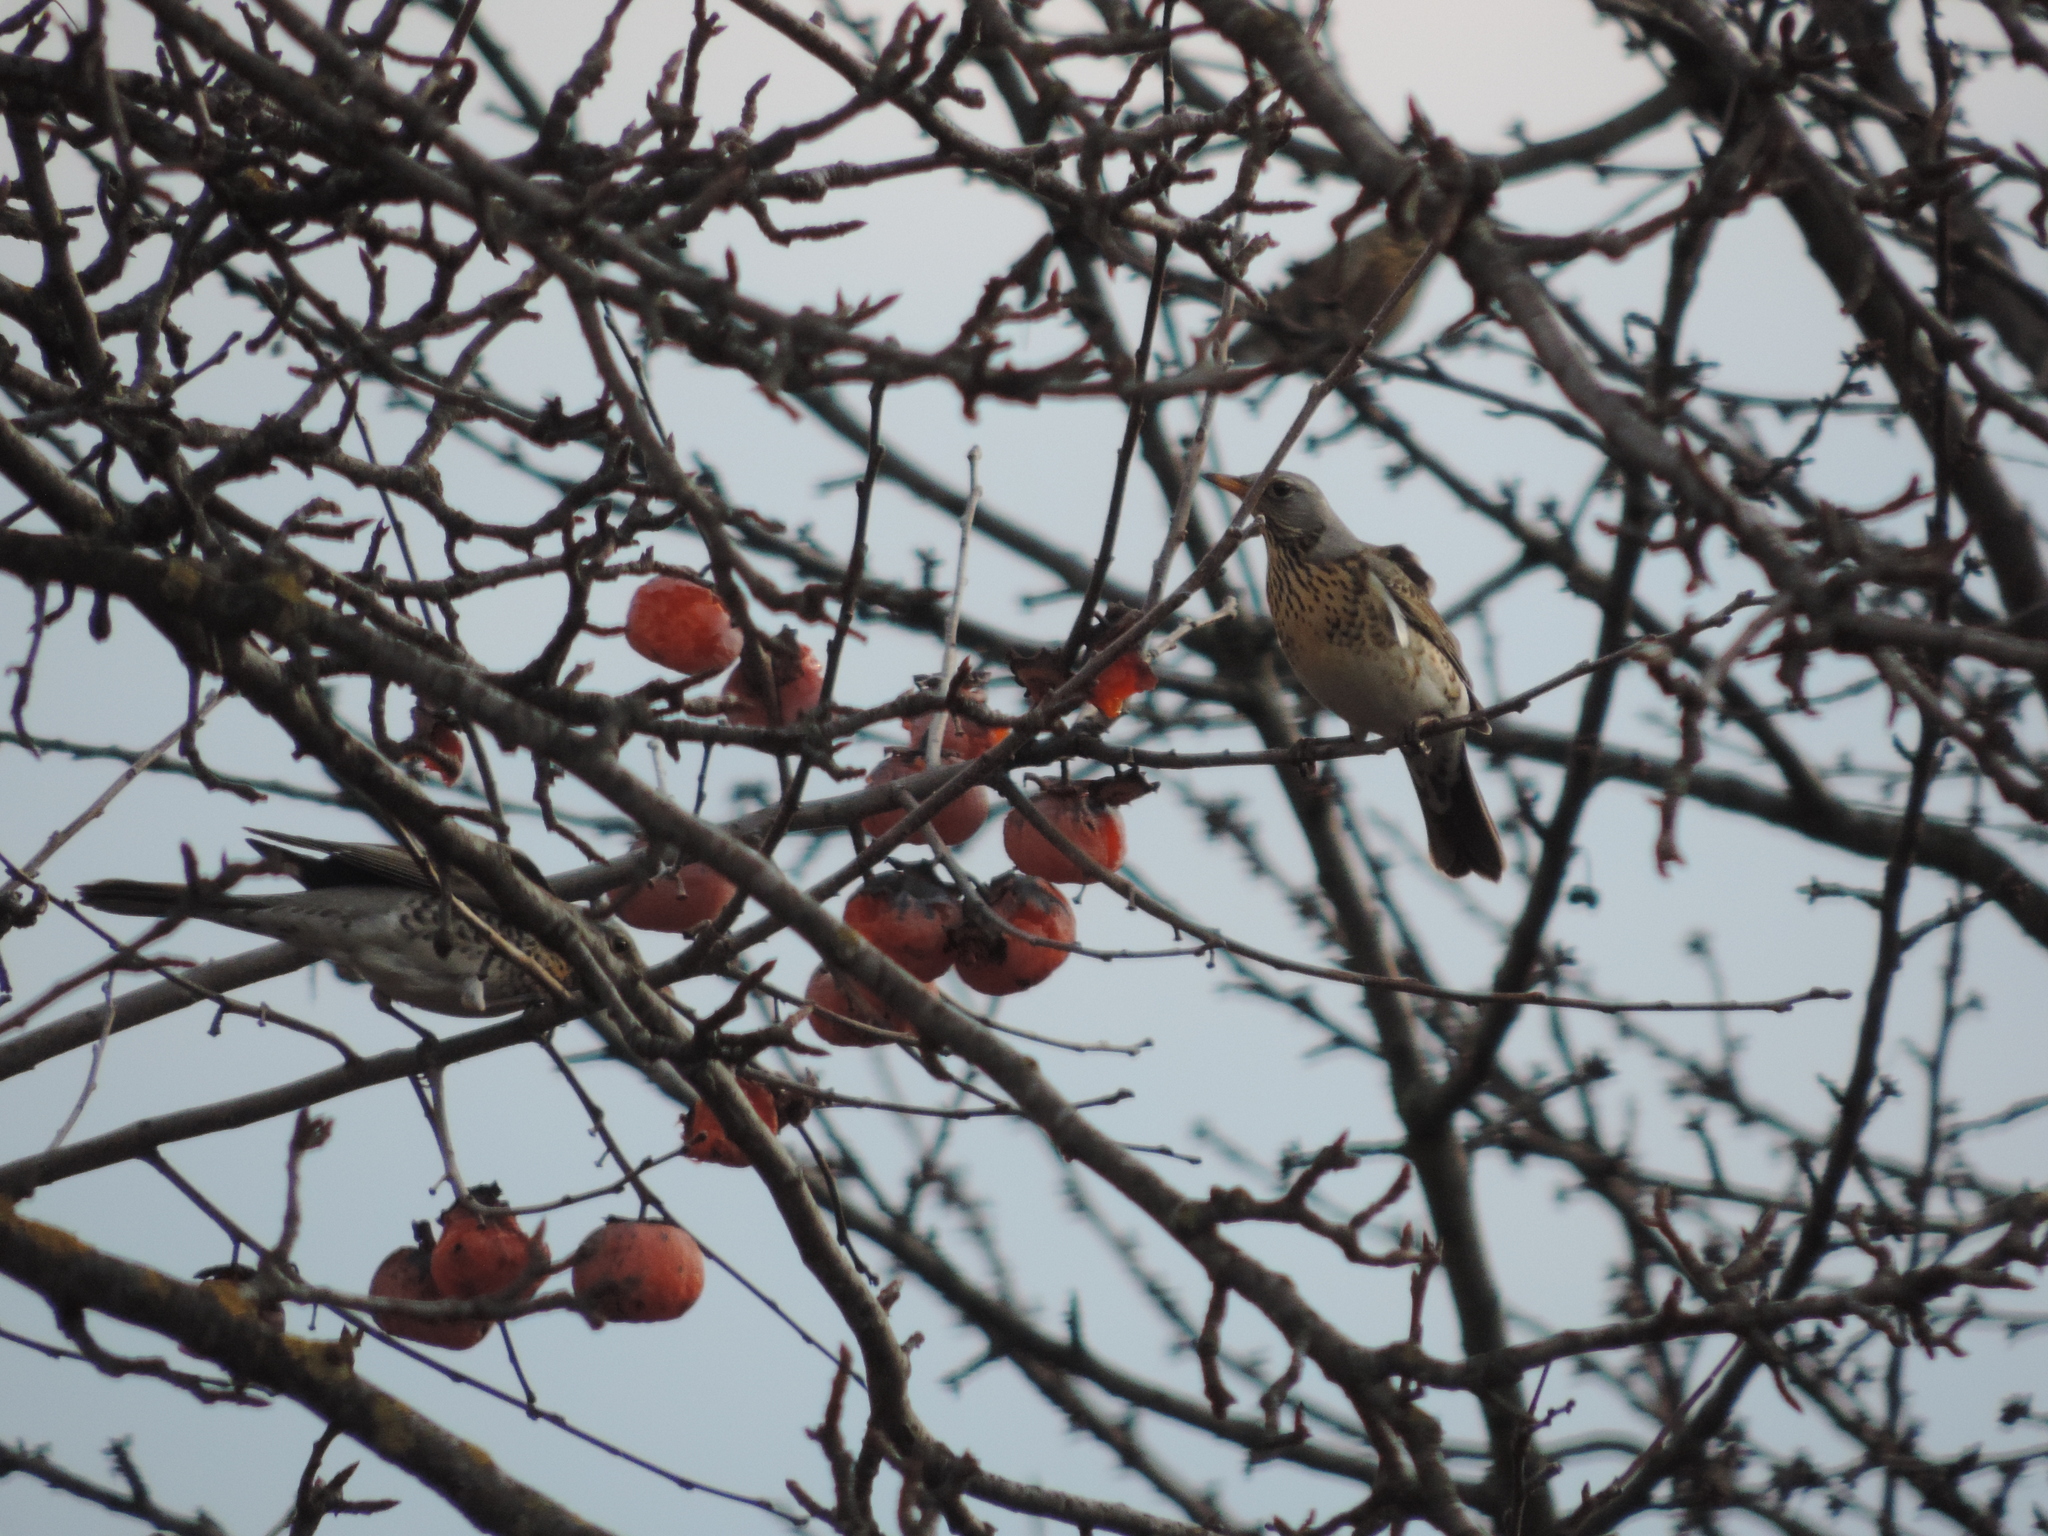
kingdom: Animalia
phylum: Chordata
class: Aves
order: Passeriformes
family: Turdidae
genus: Turdus
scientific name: Turdus pilaris
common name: Fieldfare
